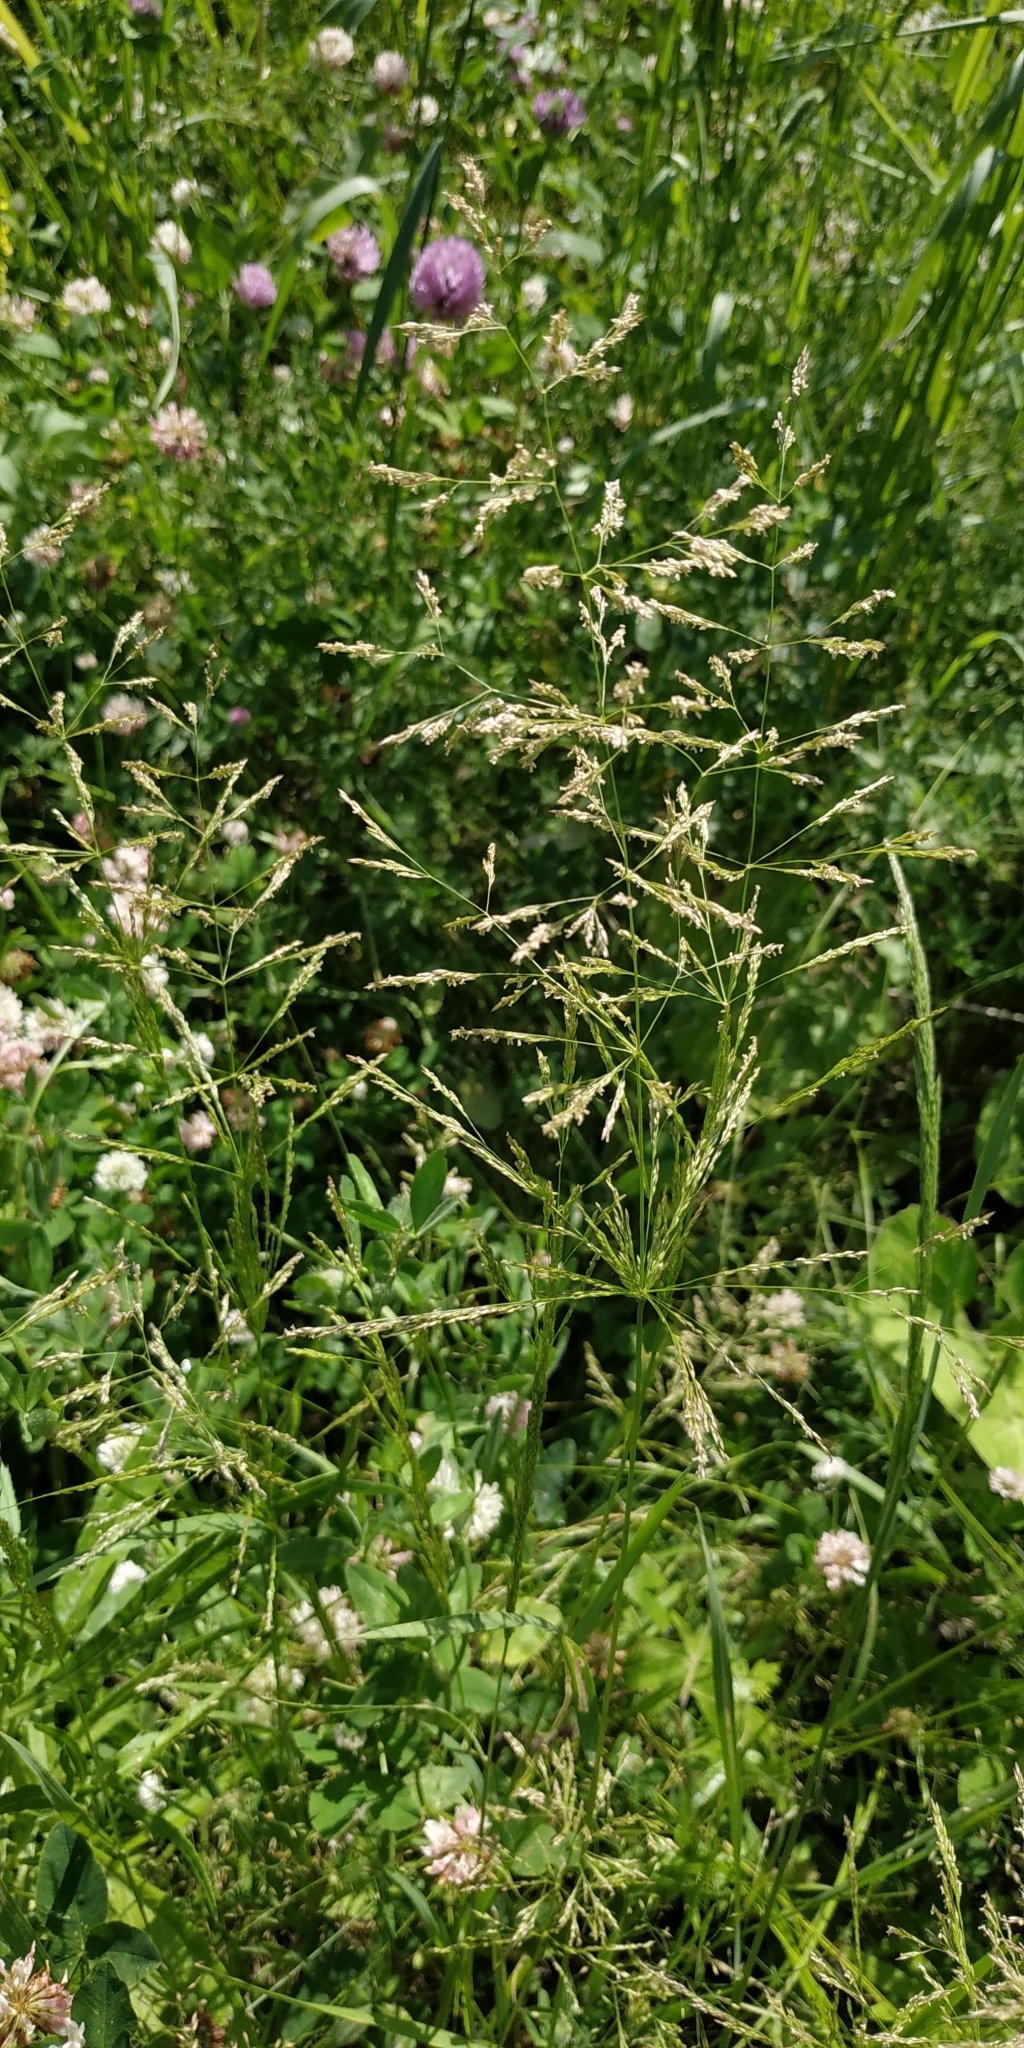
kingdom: Plantae
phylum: Tracheophyta
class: Liliopsida
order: Poales
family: Poaceae
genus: Agrostis
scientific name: Agrostis gigantea
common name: Black bent
